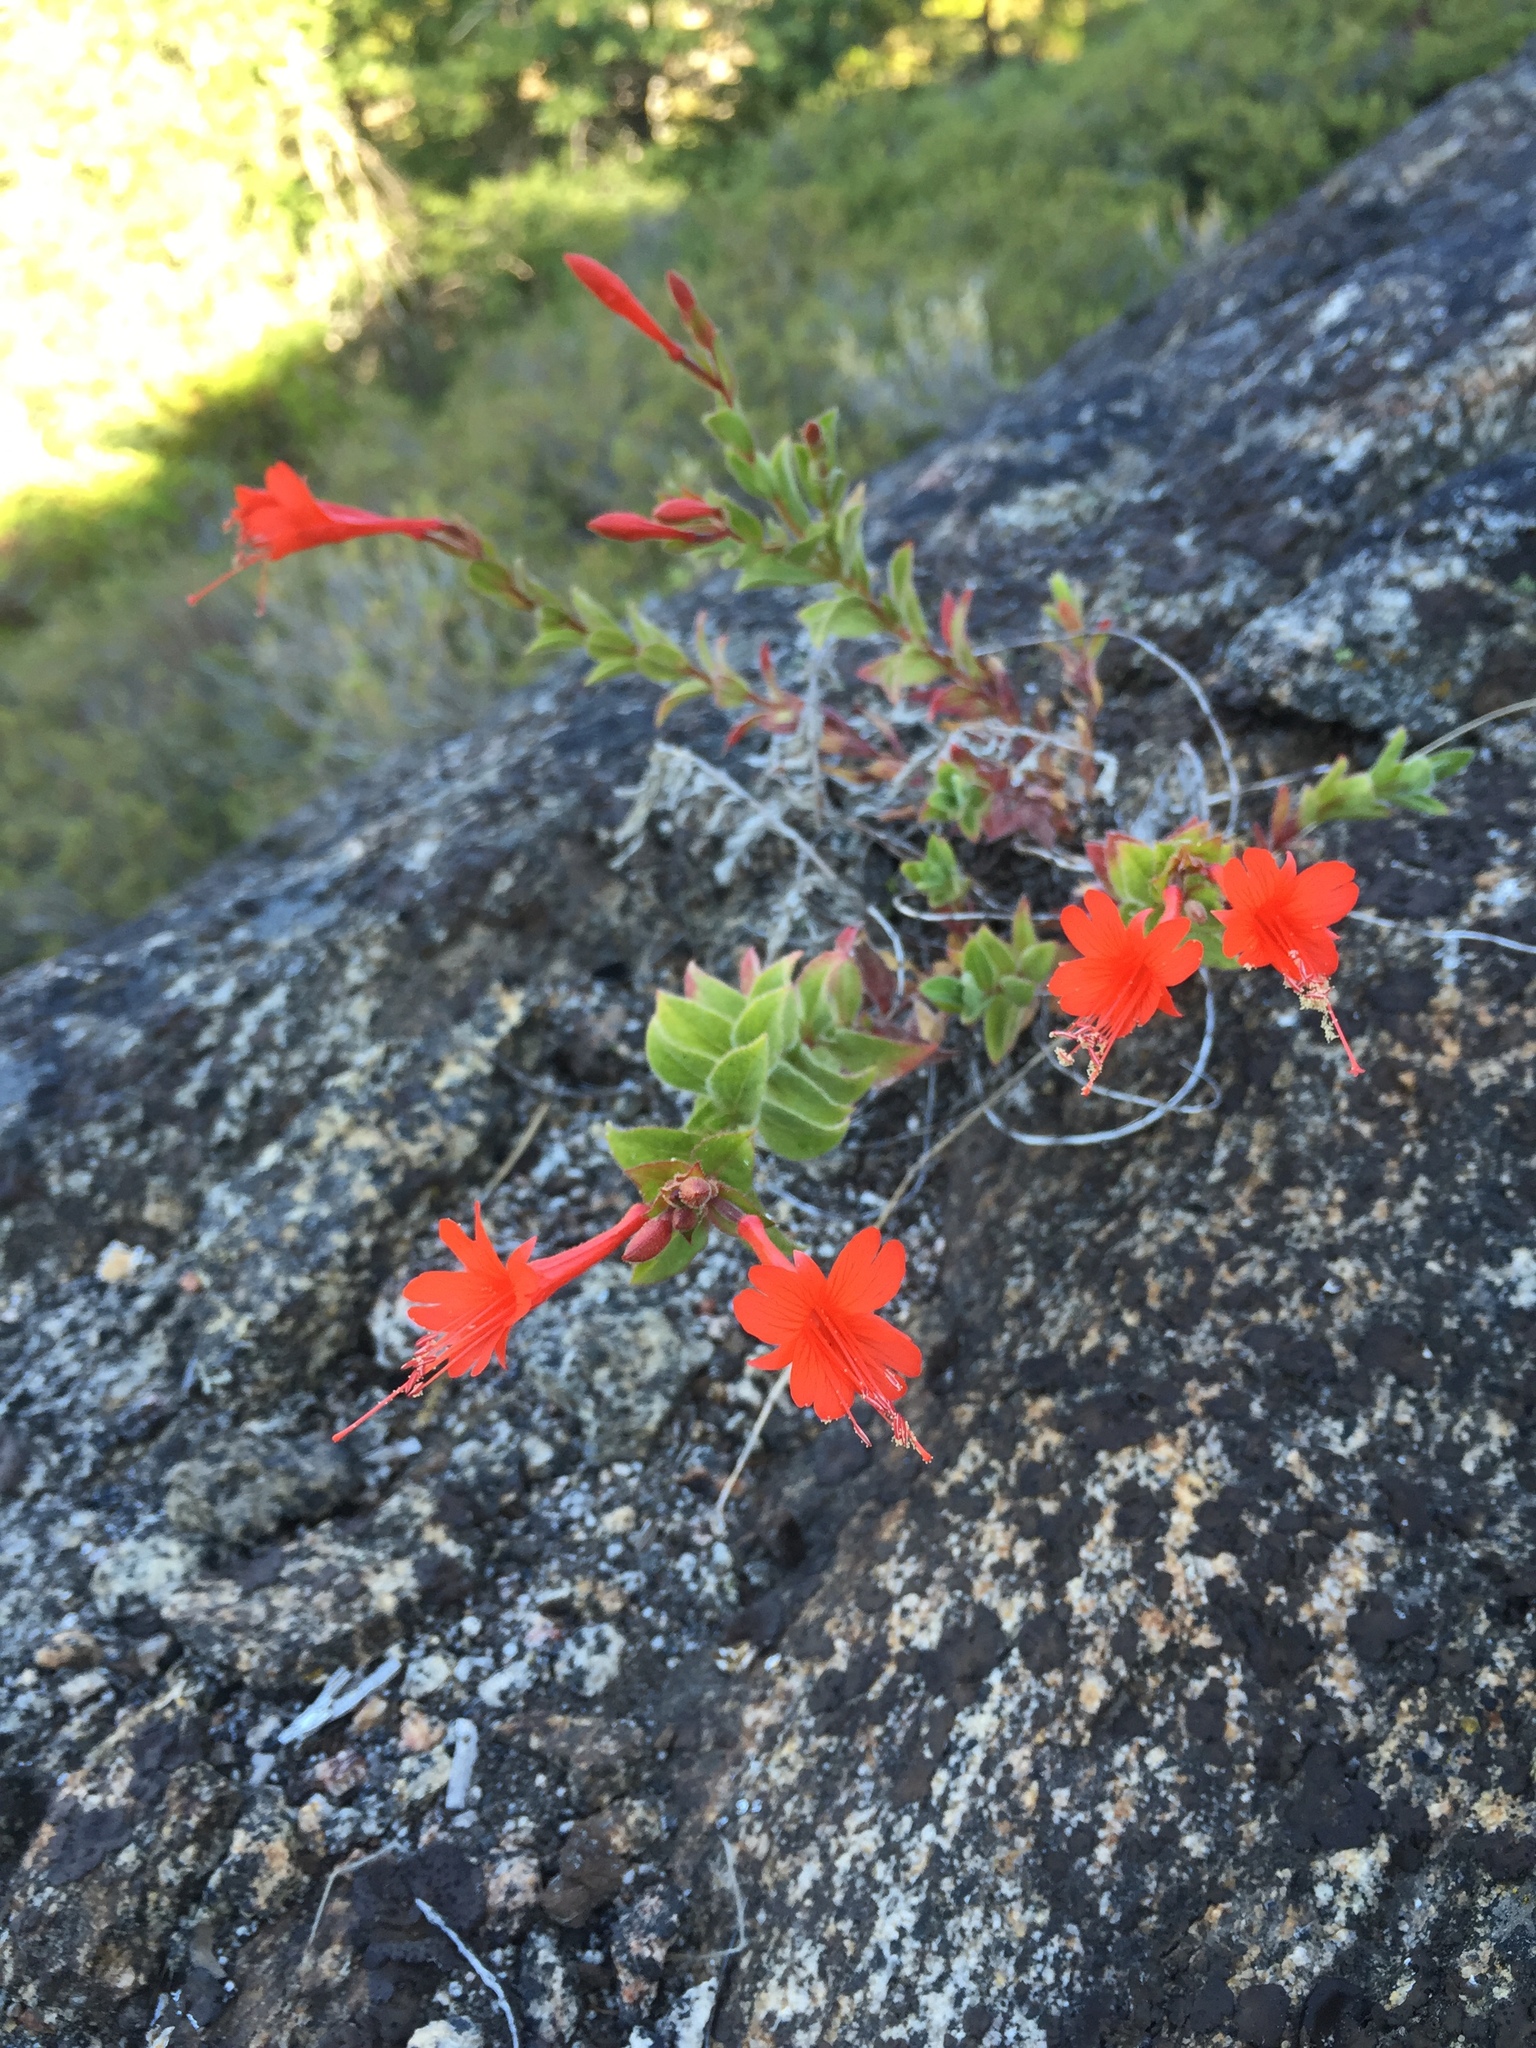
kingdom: Plantae
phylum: Tracheophyta
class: Magnoliopsida
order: Myrtales
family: Onagraceae
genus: Epilobium
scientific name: Epilobium canum
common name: California-fuchsia
